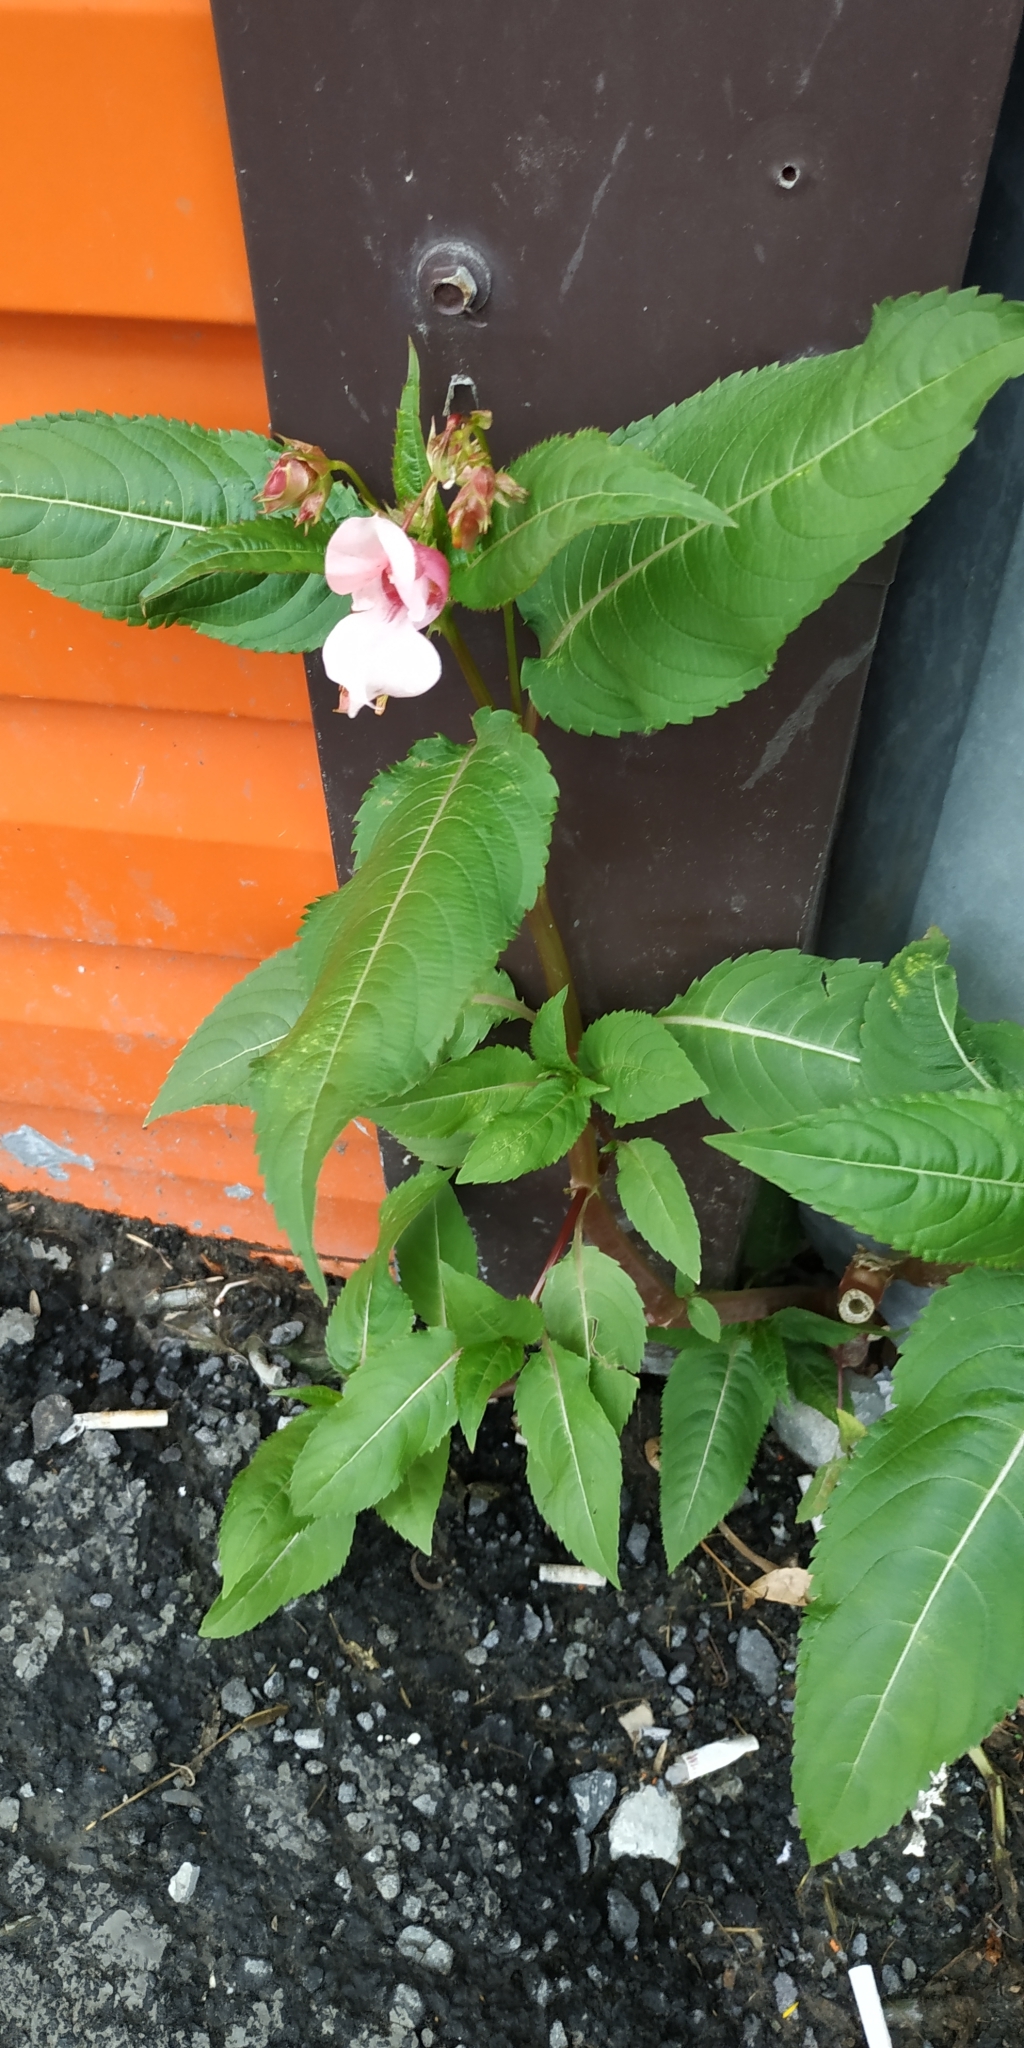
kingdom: Plantae
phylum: Tracheophyta
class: Magnoliopsida
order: Ericales
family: Balsaminaceae
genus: Impatiens
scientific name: Impatiens glandulifera
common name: Himalayan balsam
